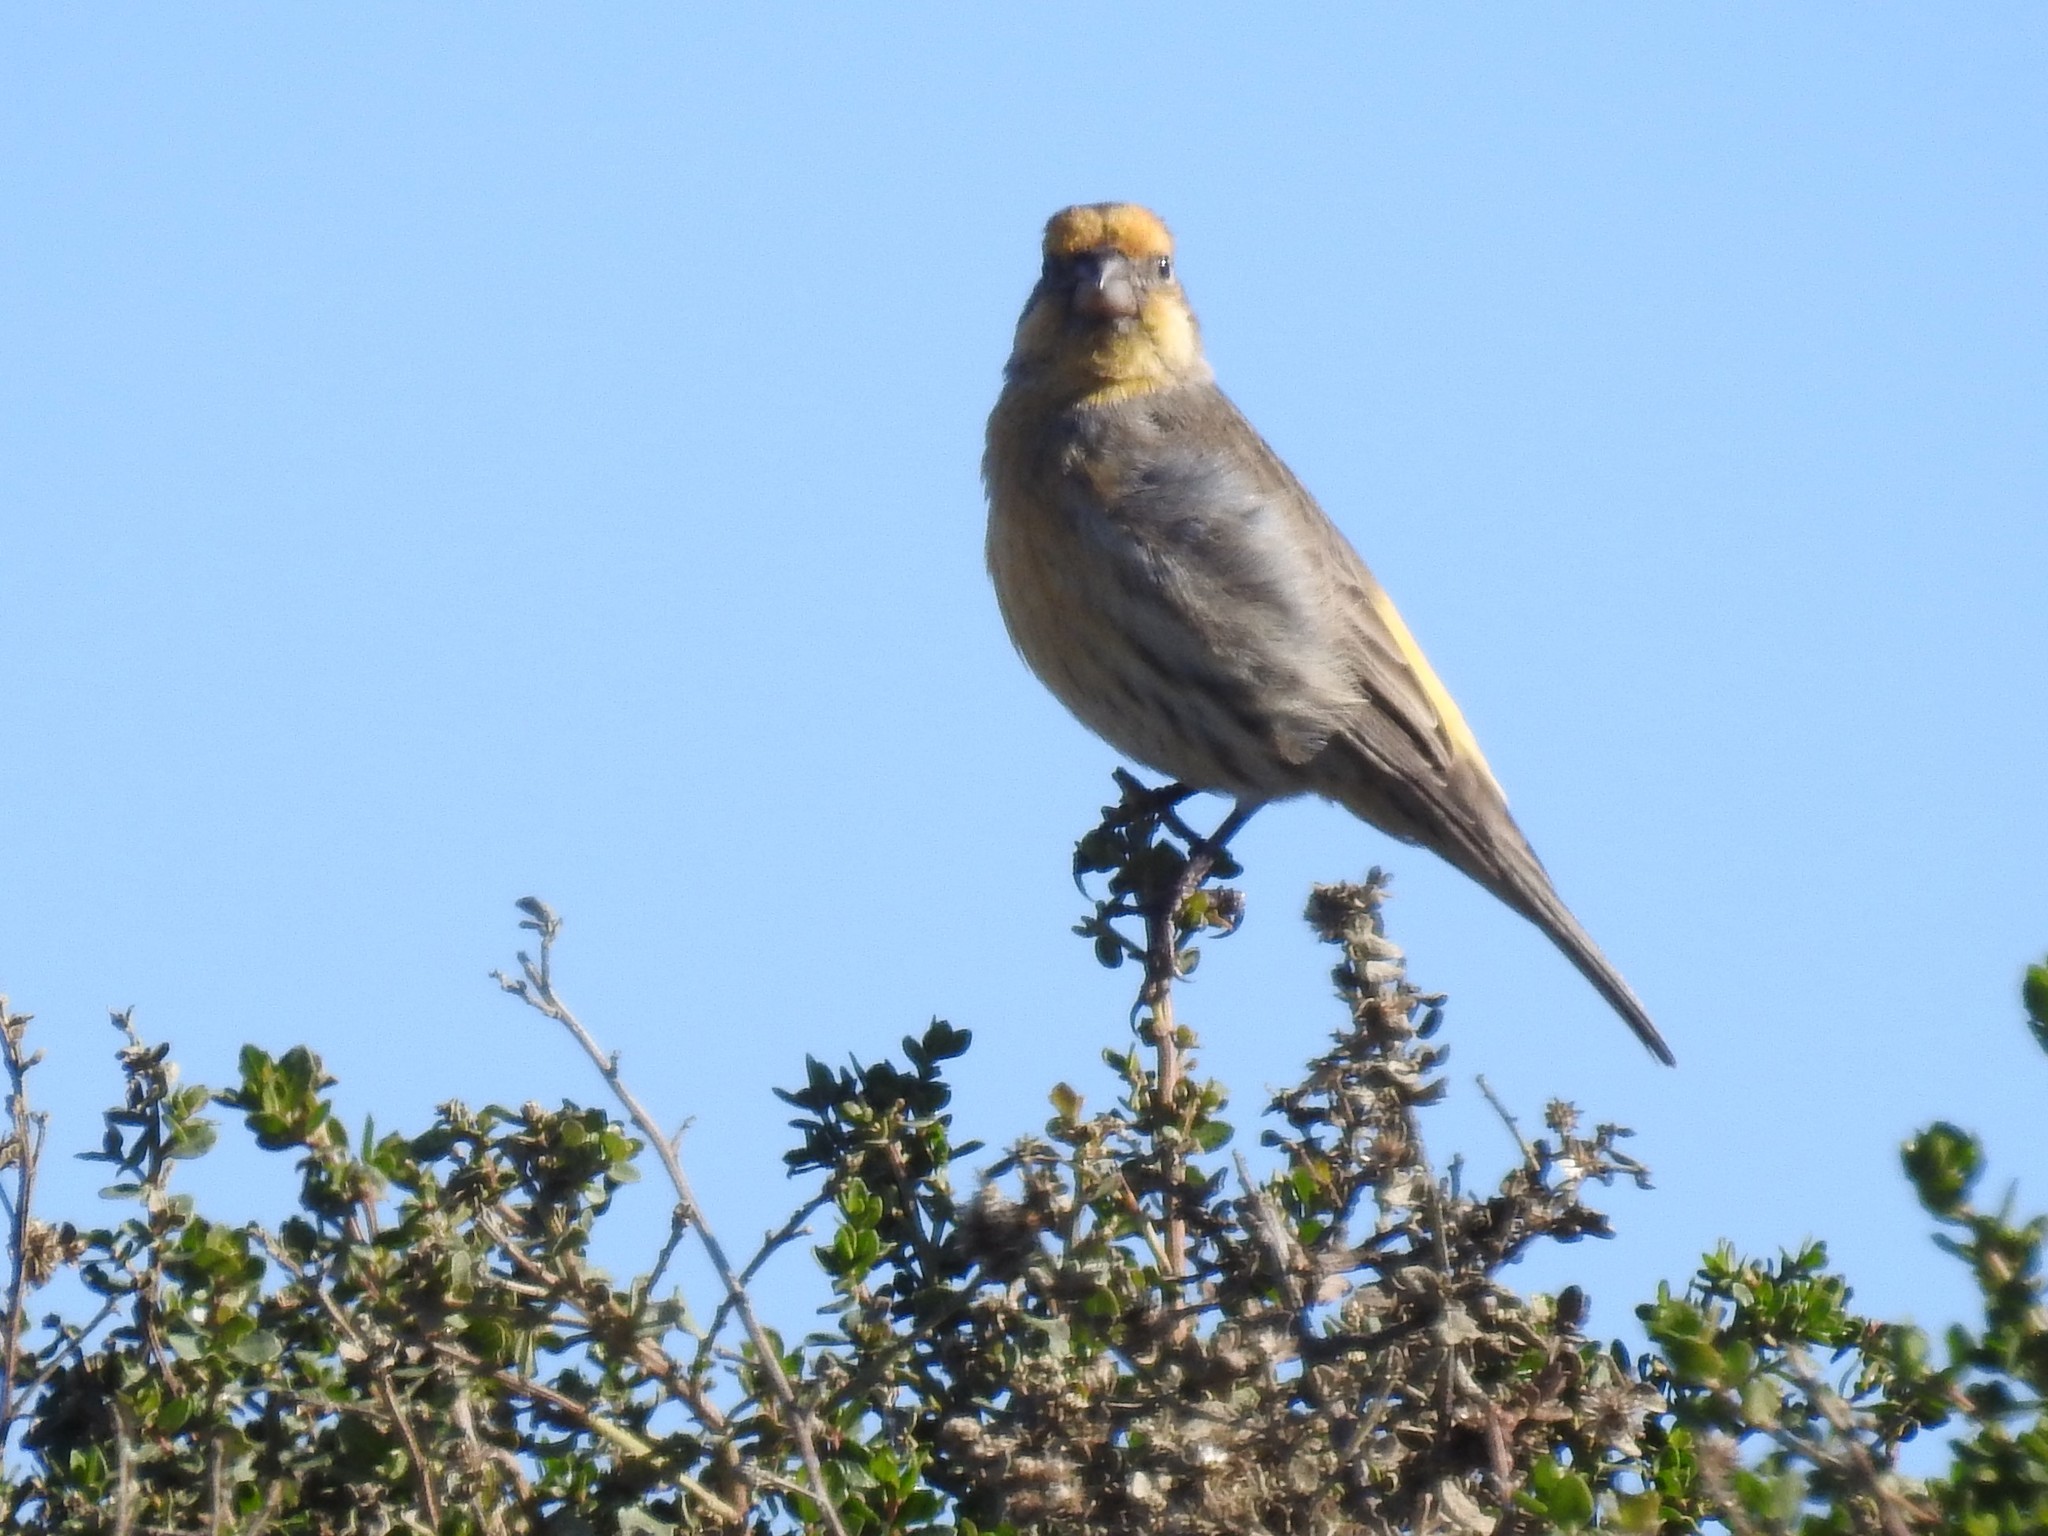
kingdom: Animalia
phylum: Chordata
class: Aves
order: Passeriformes
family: Fringillidae
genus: Haemorhous
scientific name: Haemorhous mexicanus
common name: House finch
